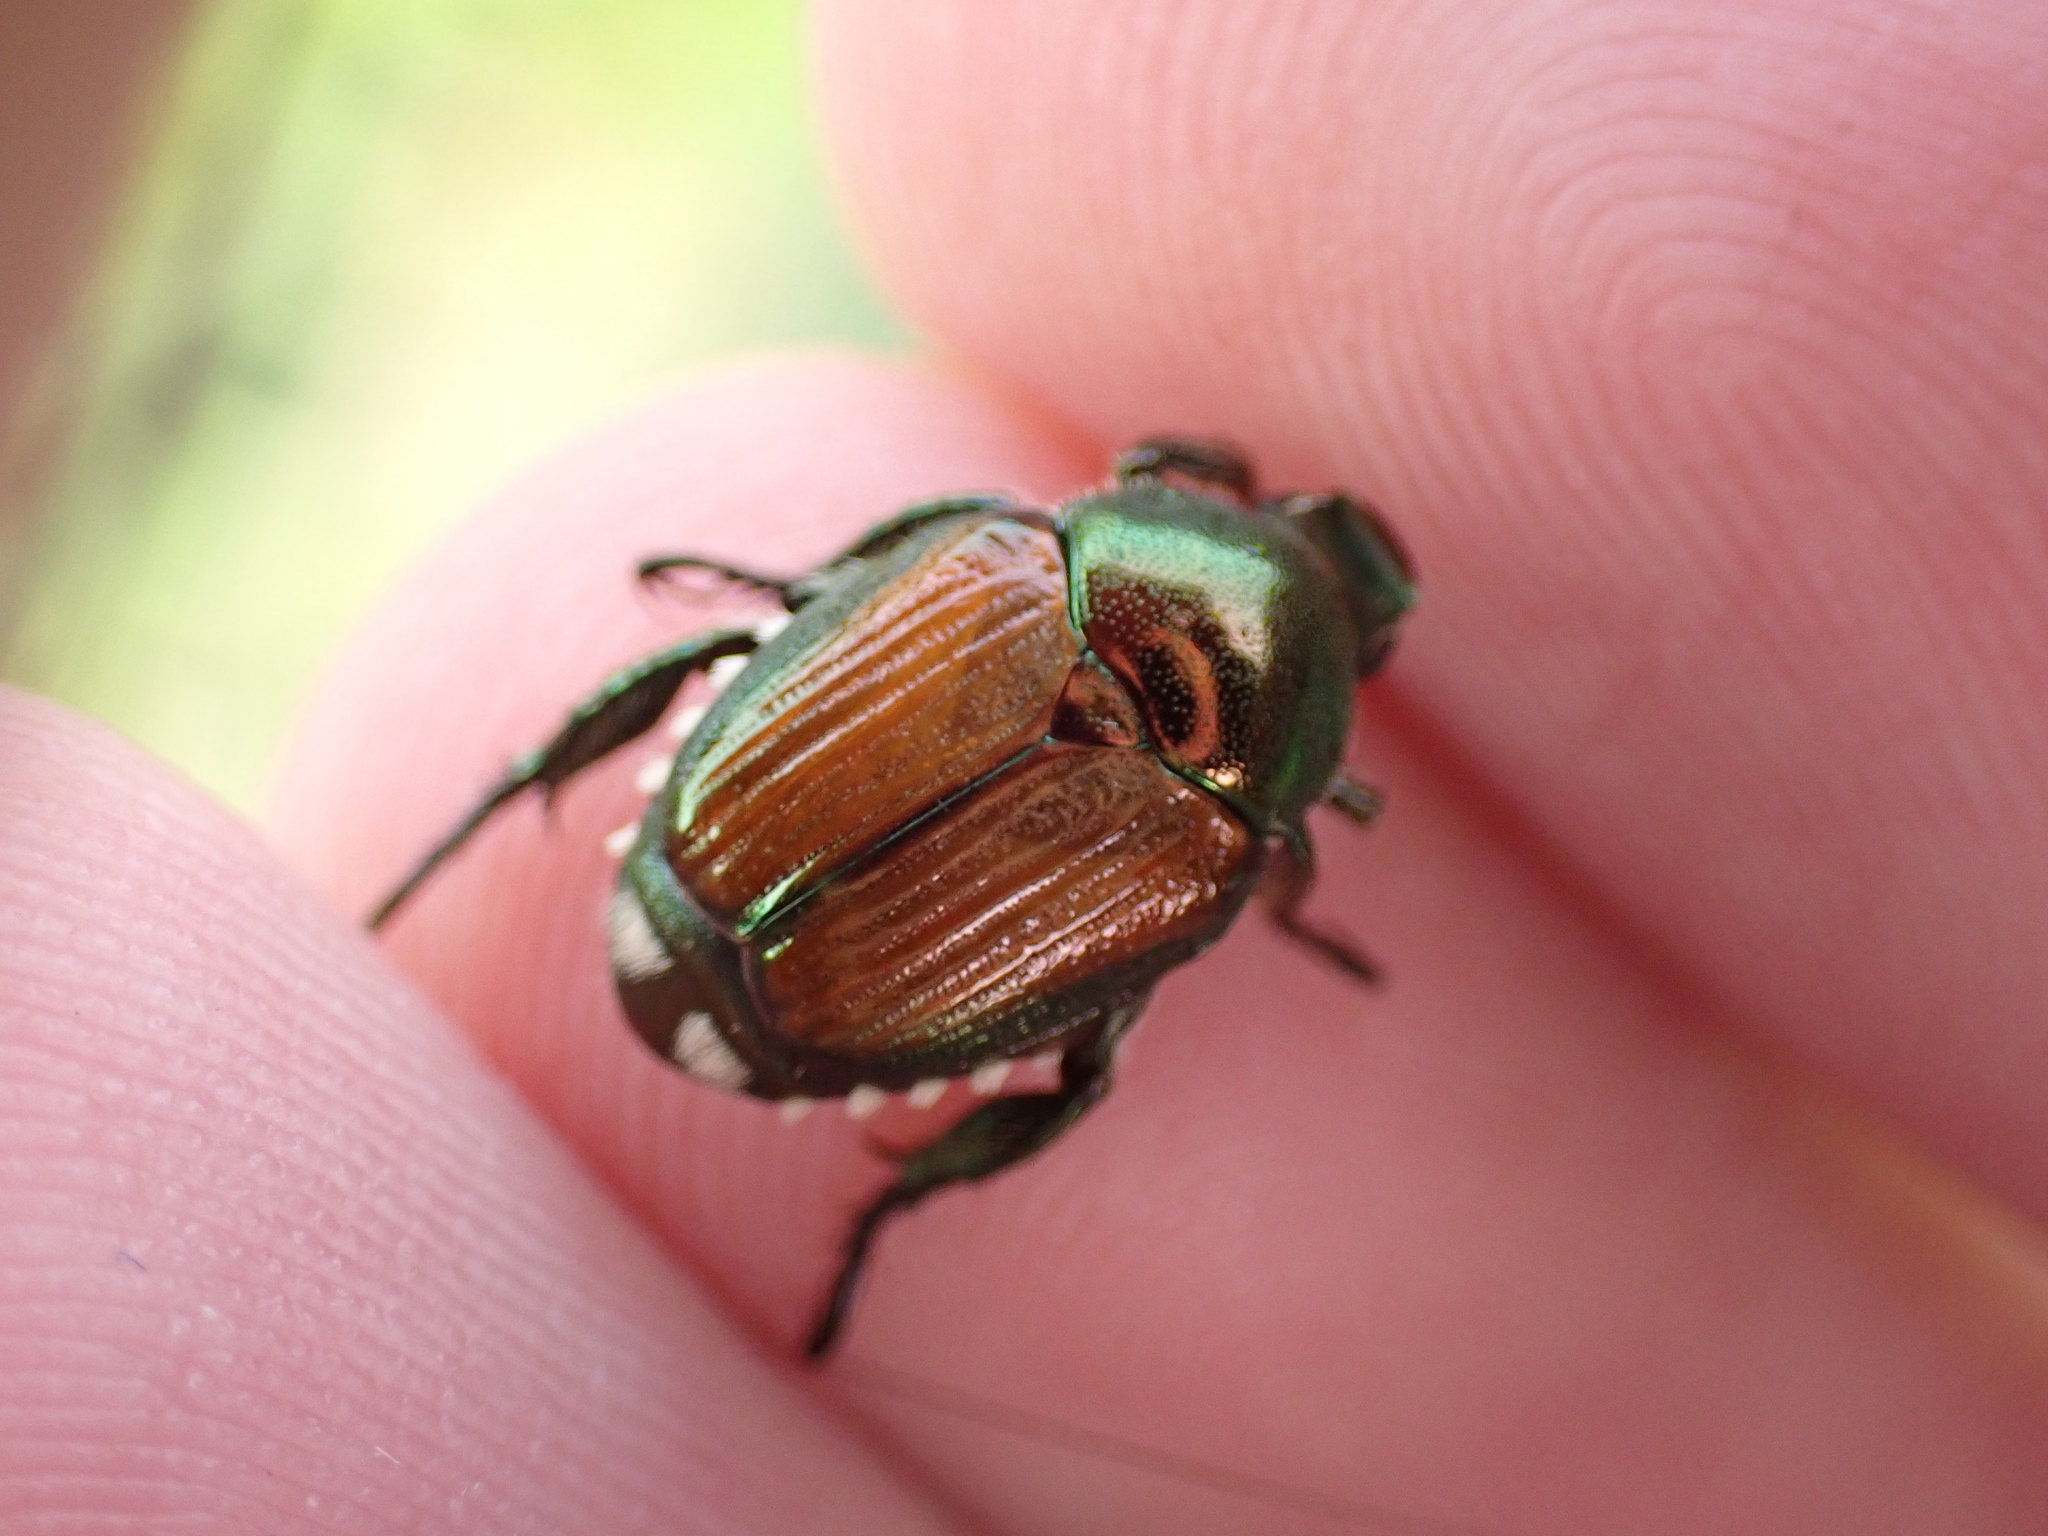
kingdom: Animalia
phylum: Arthropoda
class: Insecta
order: Coleoptera
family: Scarabaeidae
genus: Popillia
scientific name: Popillia japonica
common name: Japanese beetle
